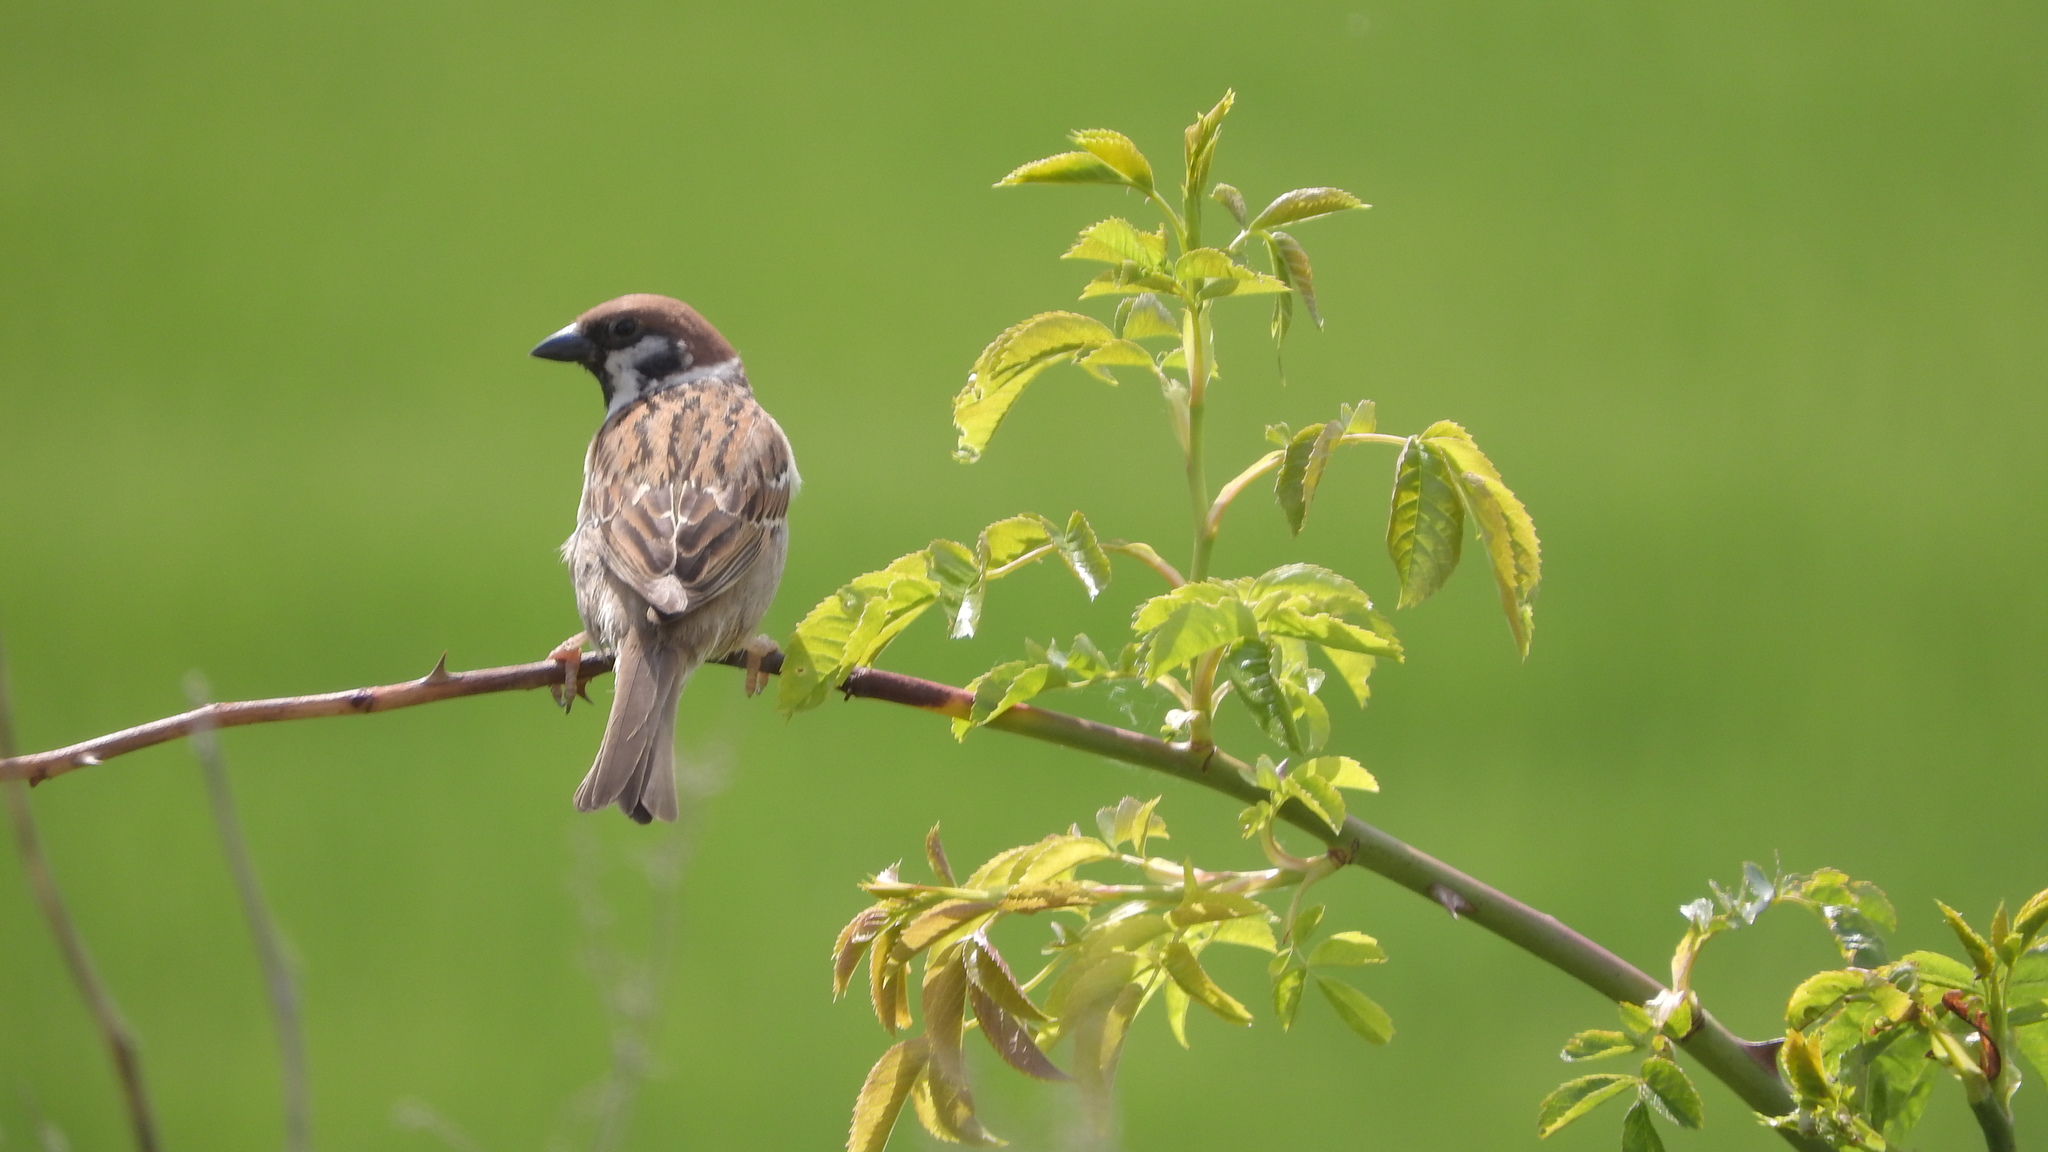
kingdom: Animalia
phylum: Chordata
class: Aves
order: Passeriformes
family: Passeridae
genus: Passer
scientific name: Passer montanus
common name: Eurasian tree sparrow
